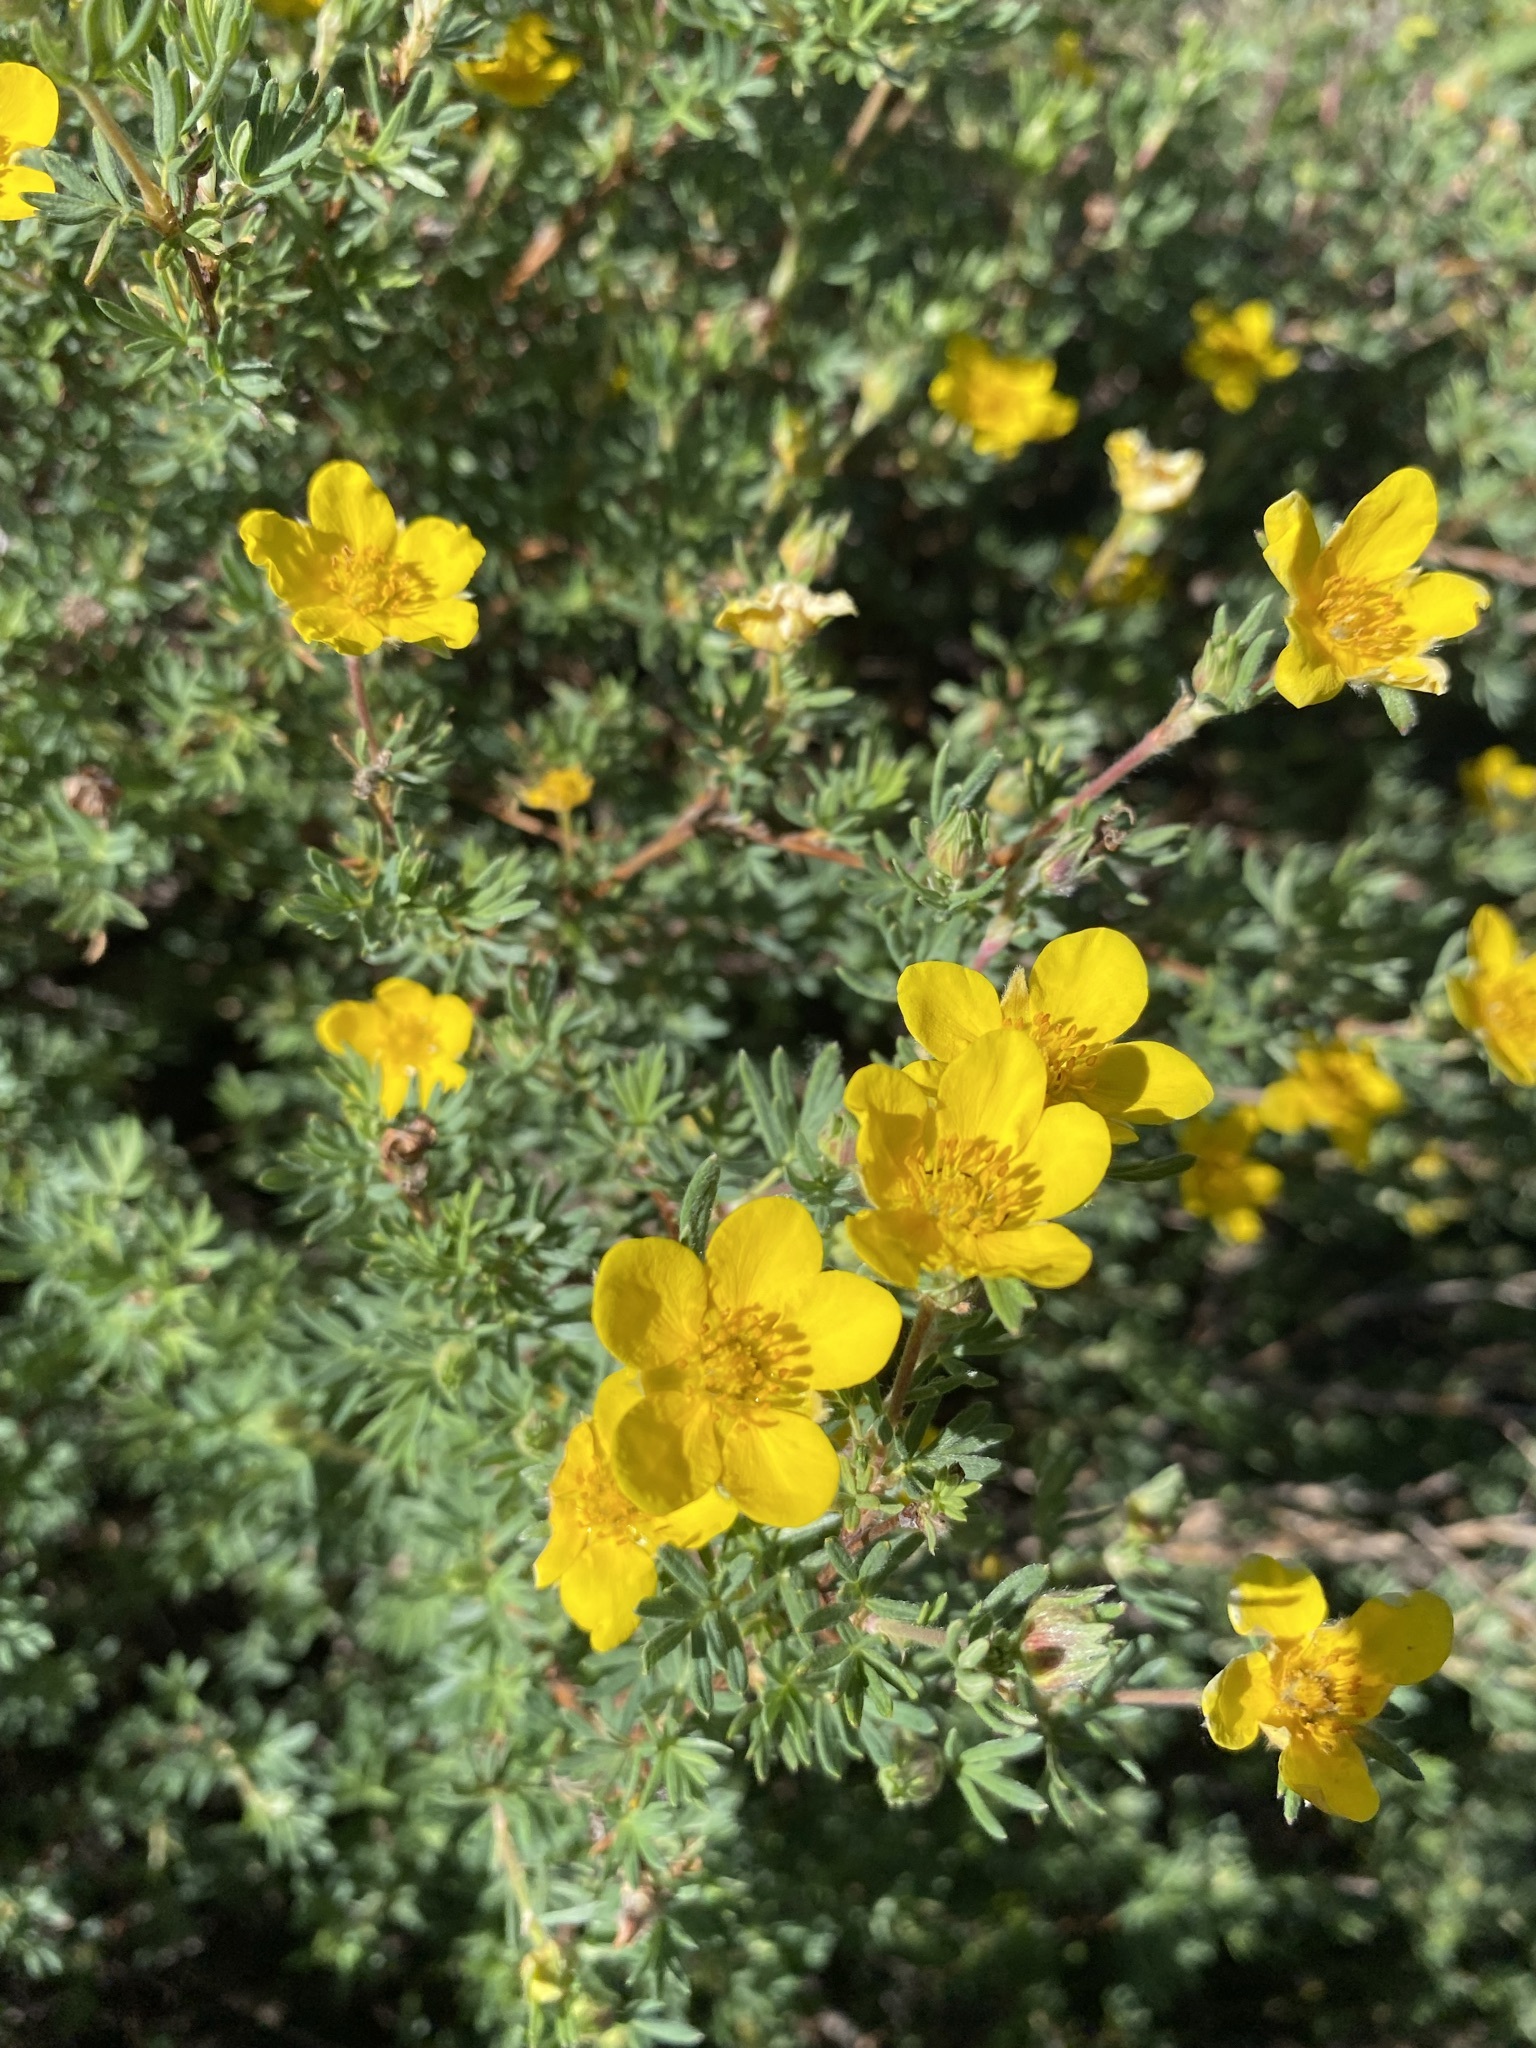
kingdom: Plantae
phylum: Tracheophyta
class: Magnoliopsida
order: Rosales
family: Rosaceae
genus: Dasiphora
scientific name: Dasiphora fruticosa
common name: Shrubby cinquefoil
